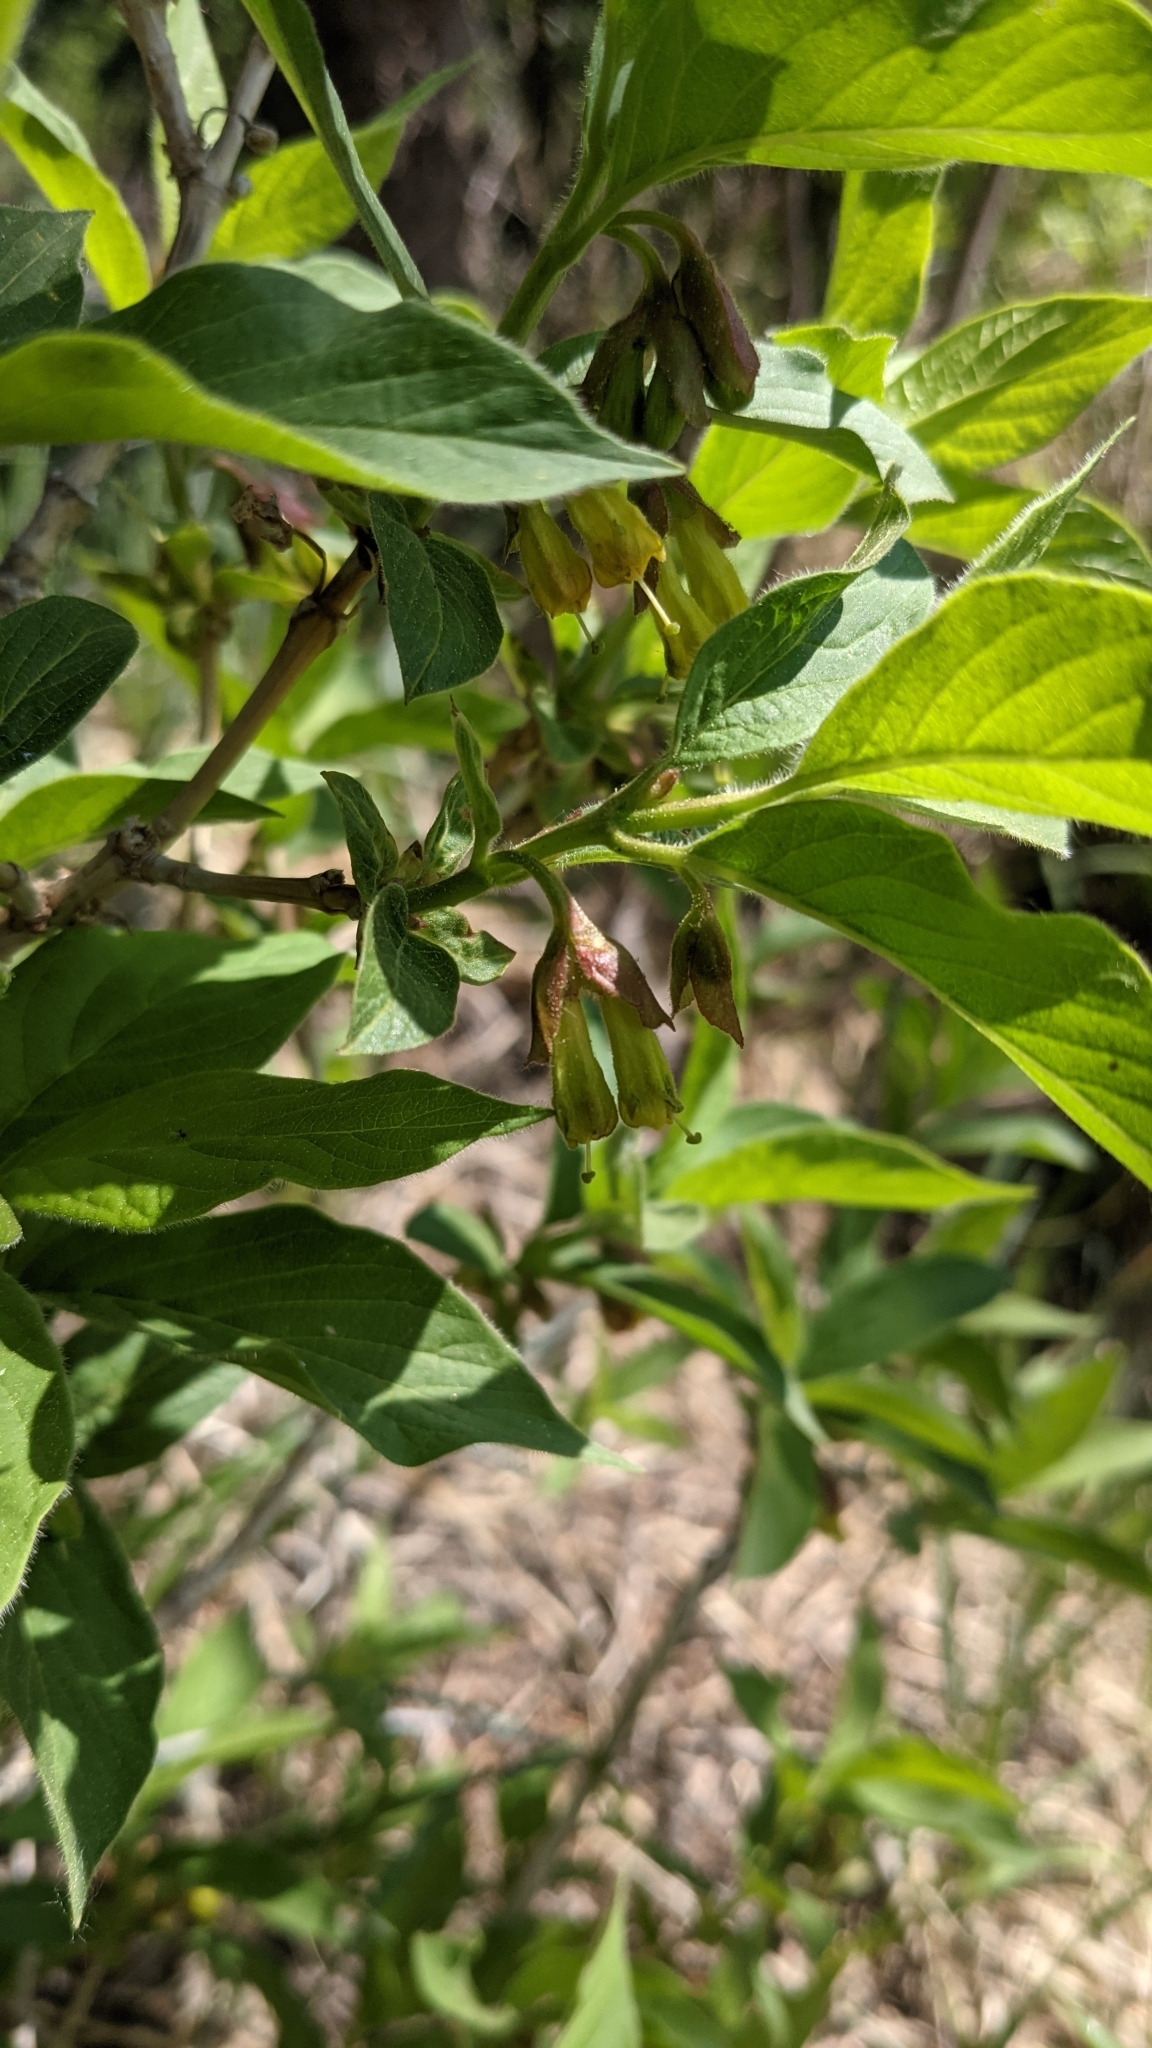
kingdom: Plantae
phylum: Tracheophyta
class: Magnoliopsida
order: Dipsacales
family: Caprifoliaceae
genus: Lonicera
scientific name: Lonicera involucrata
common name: Californian honeysuckle
